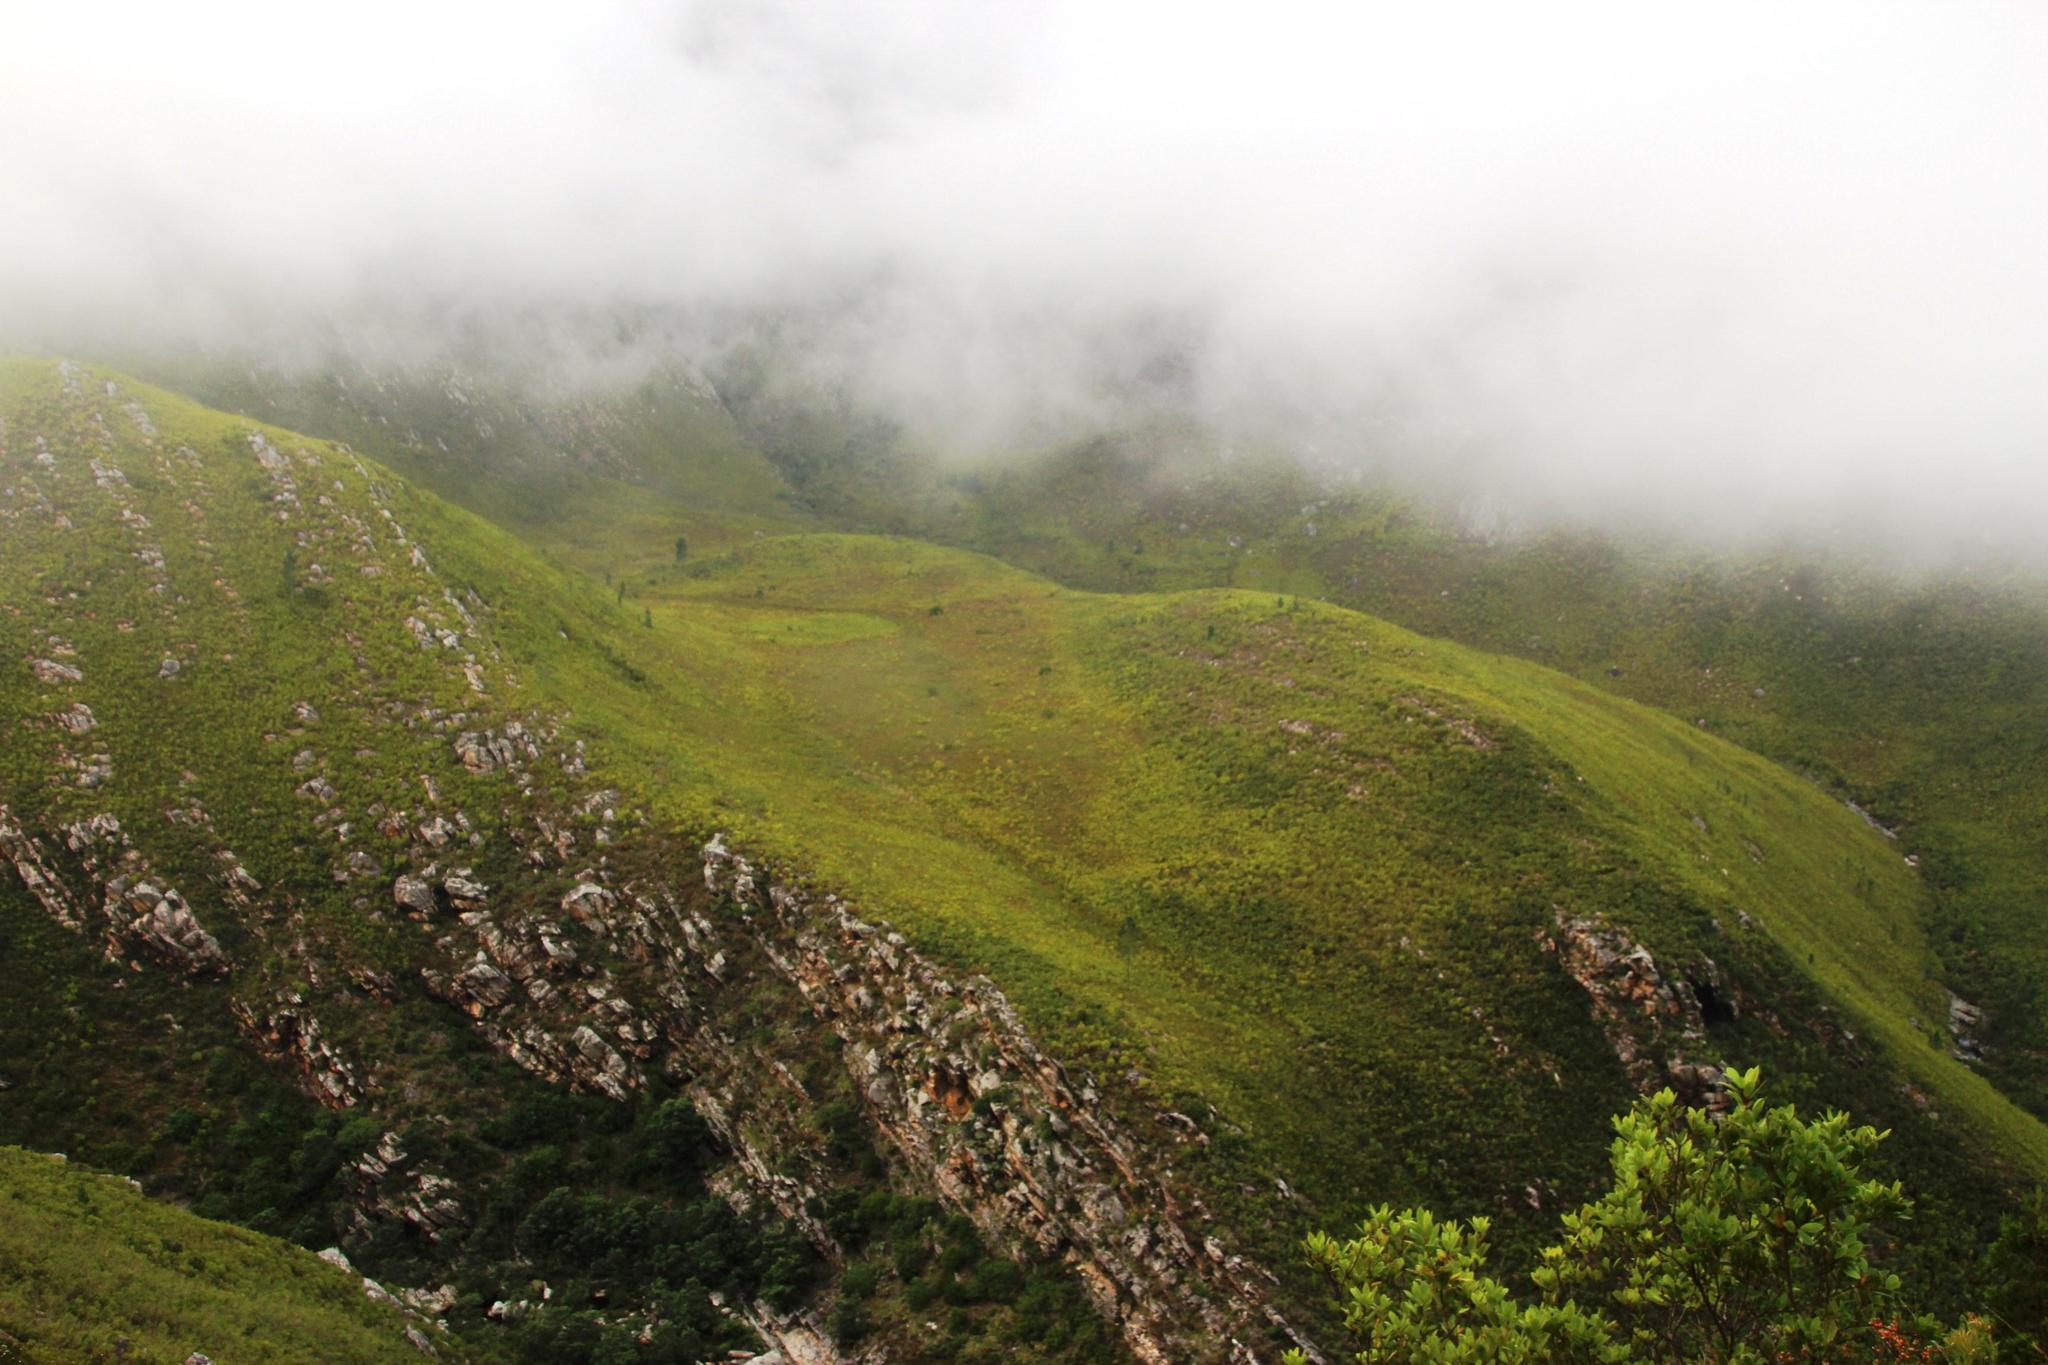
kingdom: Plantae
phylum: Tracheophyta
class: Pinopsida
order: Pinales
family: Pinaceae
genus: Pinus
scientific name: Pinus pinaster
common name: Maritime pine
